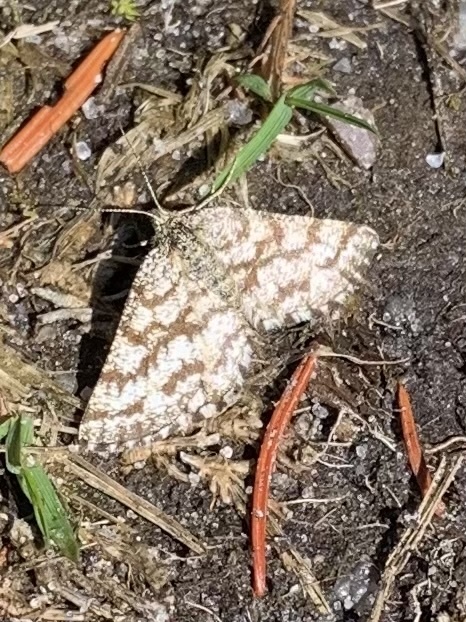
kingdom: Animalia
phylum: Arthropoda
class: Insecta
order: Lepidoptera
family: Geometridae
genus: Ematurga
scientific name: Ematurga atomaria
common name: Common heath
